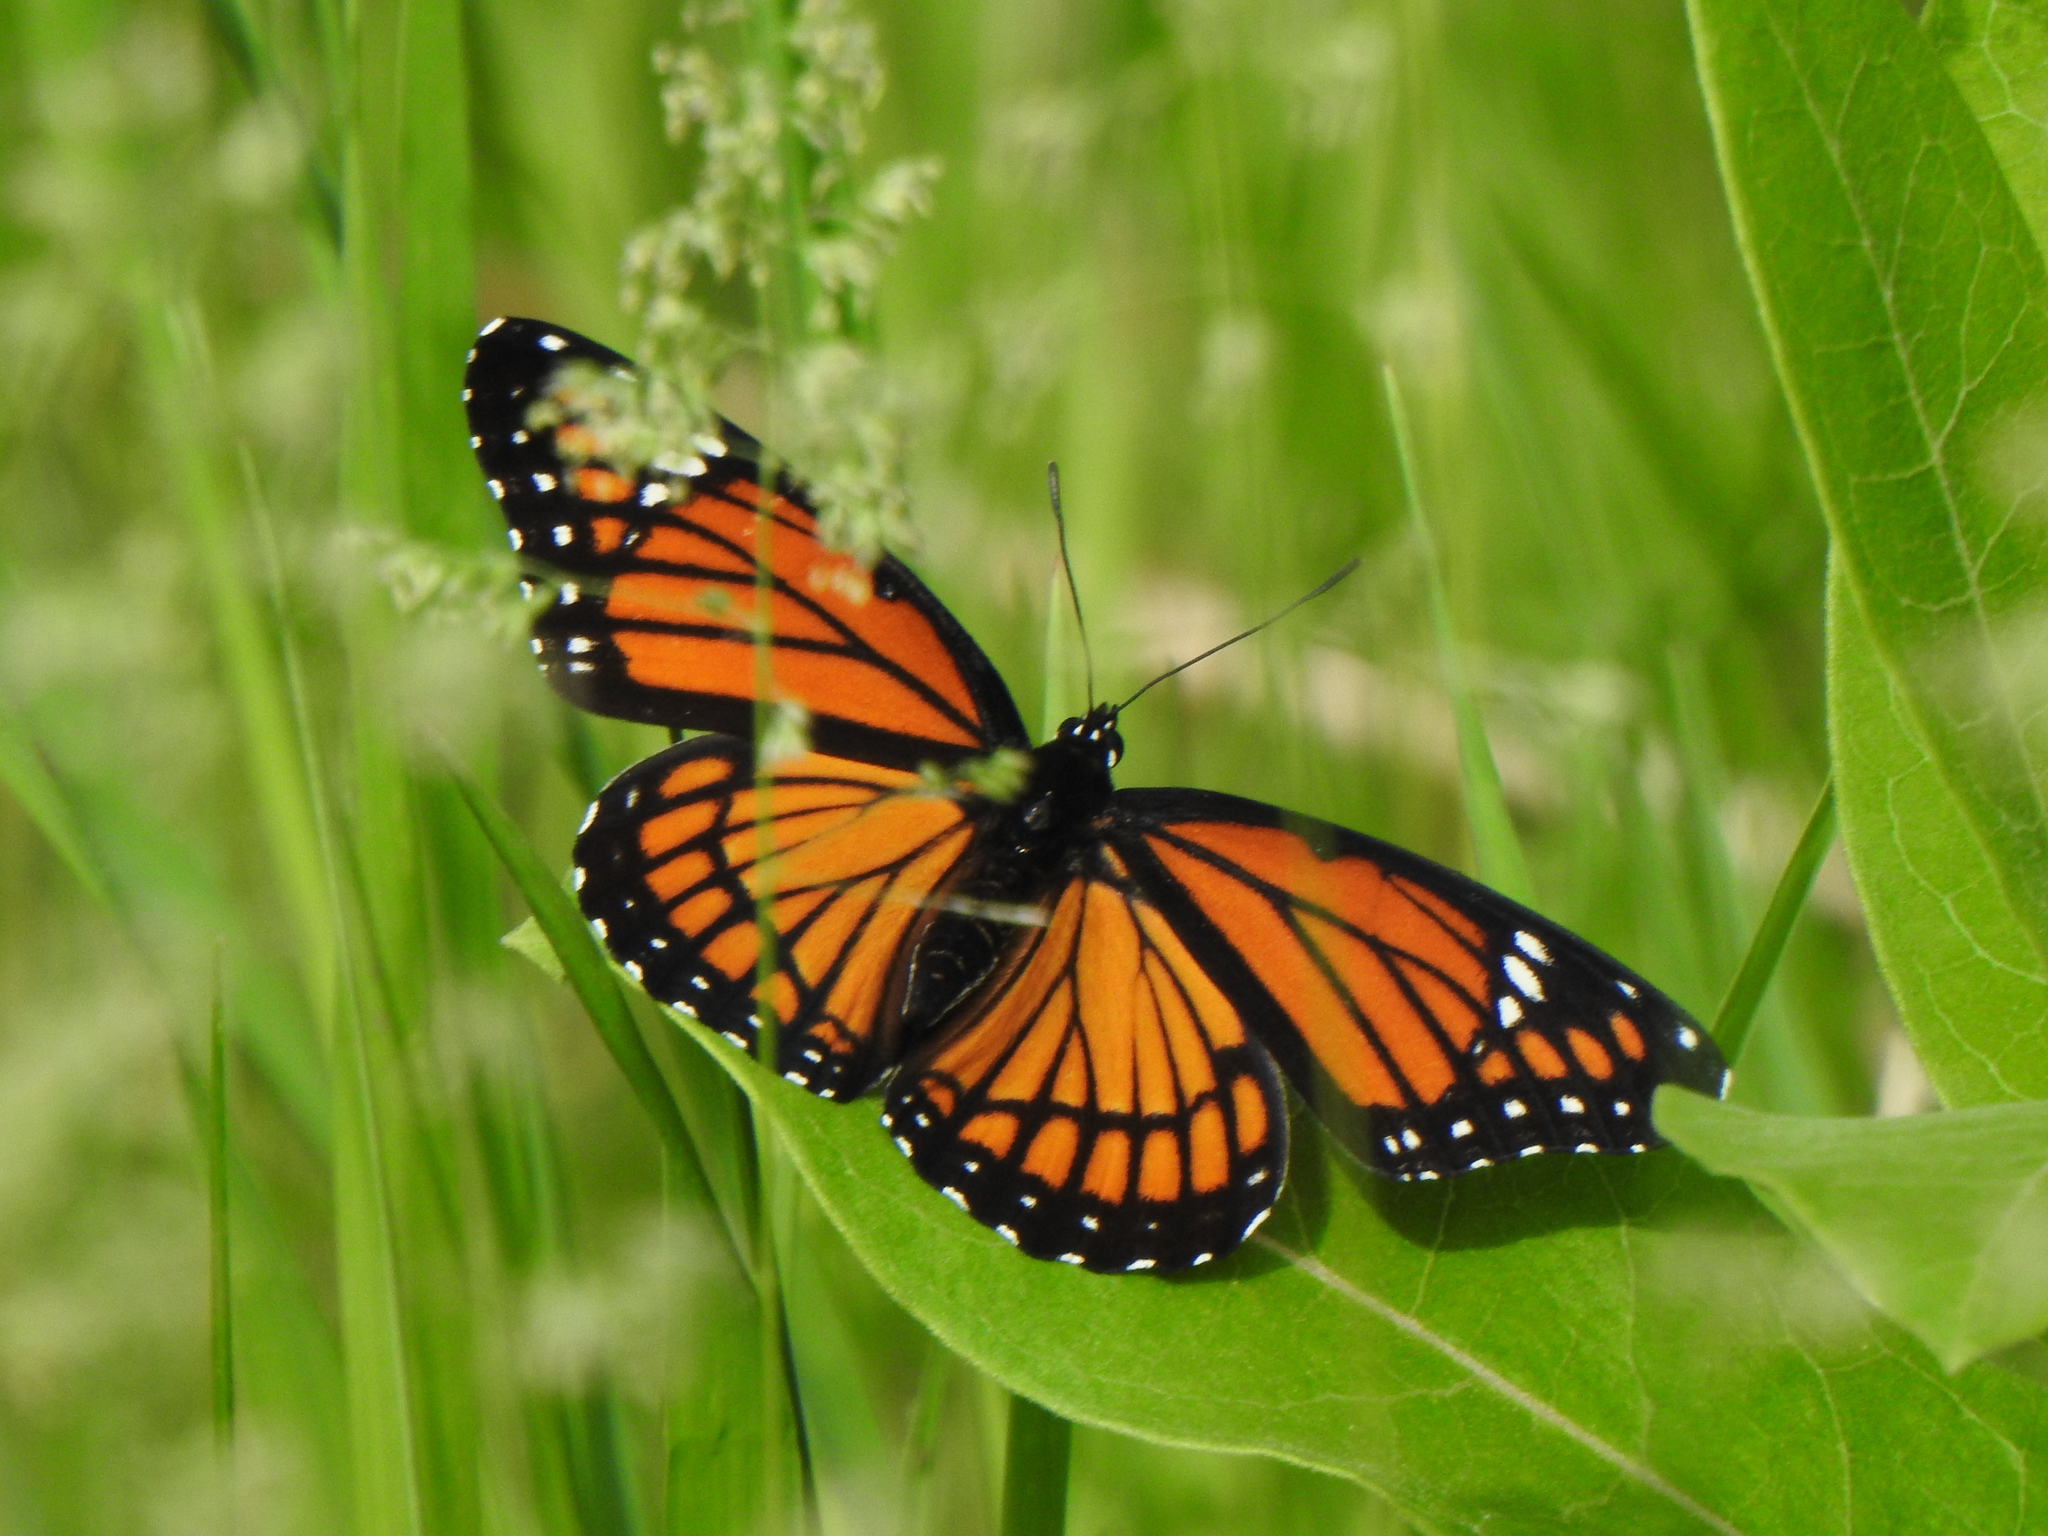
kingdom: Animalia
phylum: Arthropoda
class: Insecta
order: Lepidoptera
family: Nymphalidae
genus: Limenitis
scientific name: Limenitis archippus
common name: Viceroy
